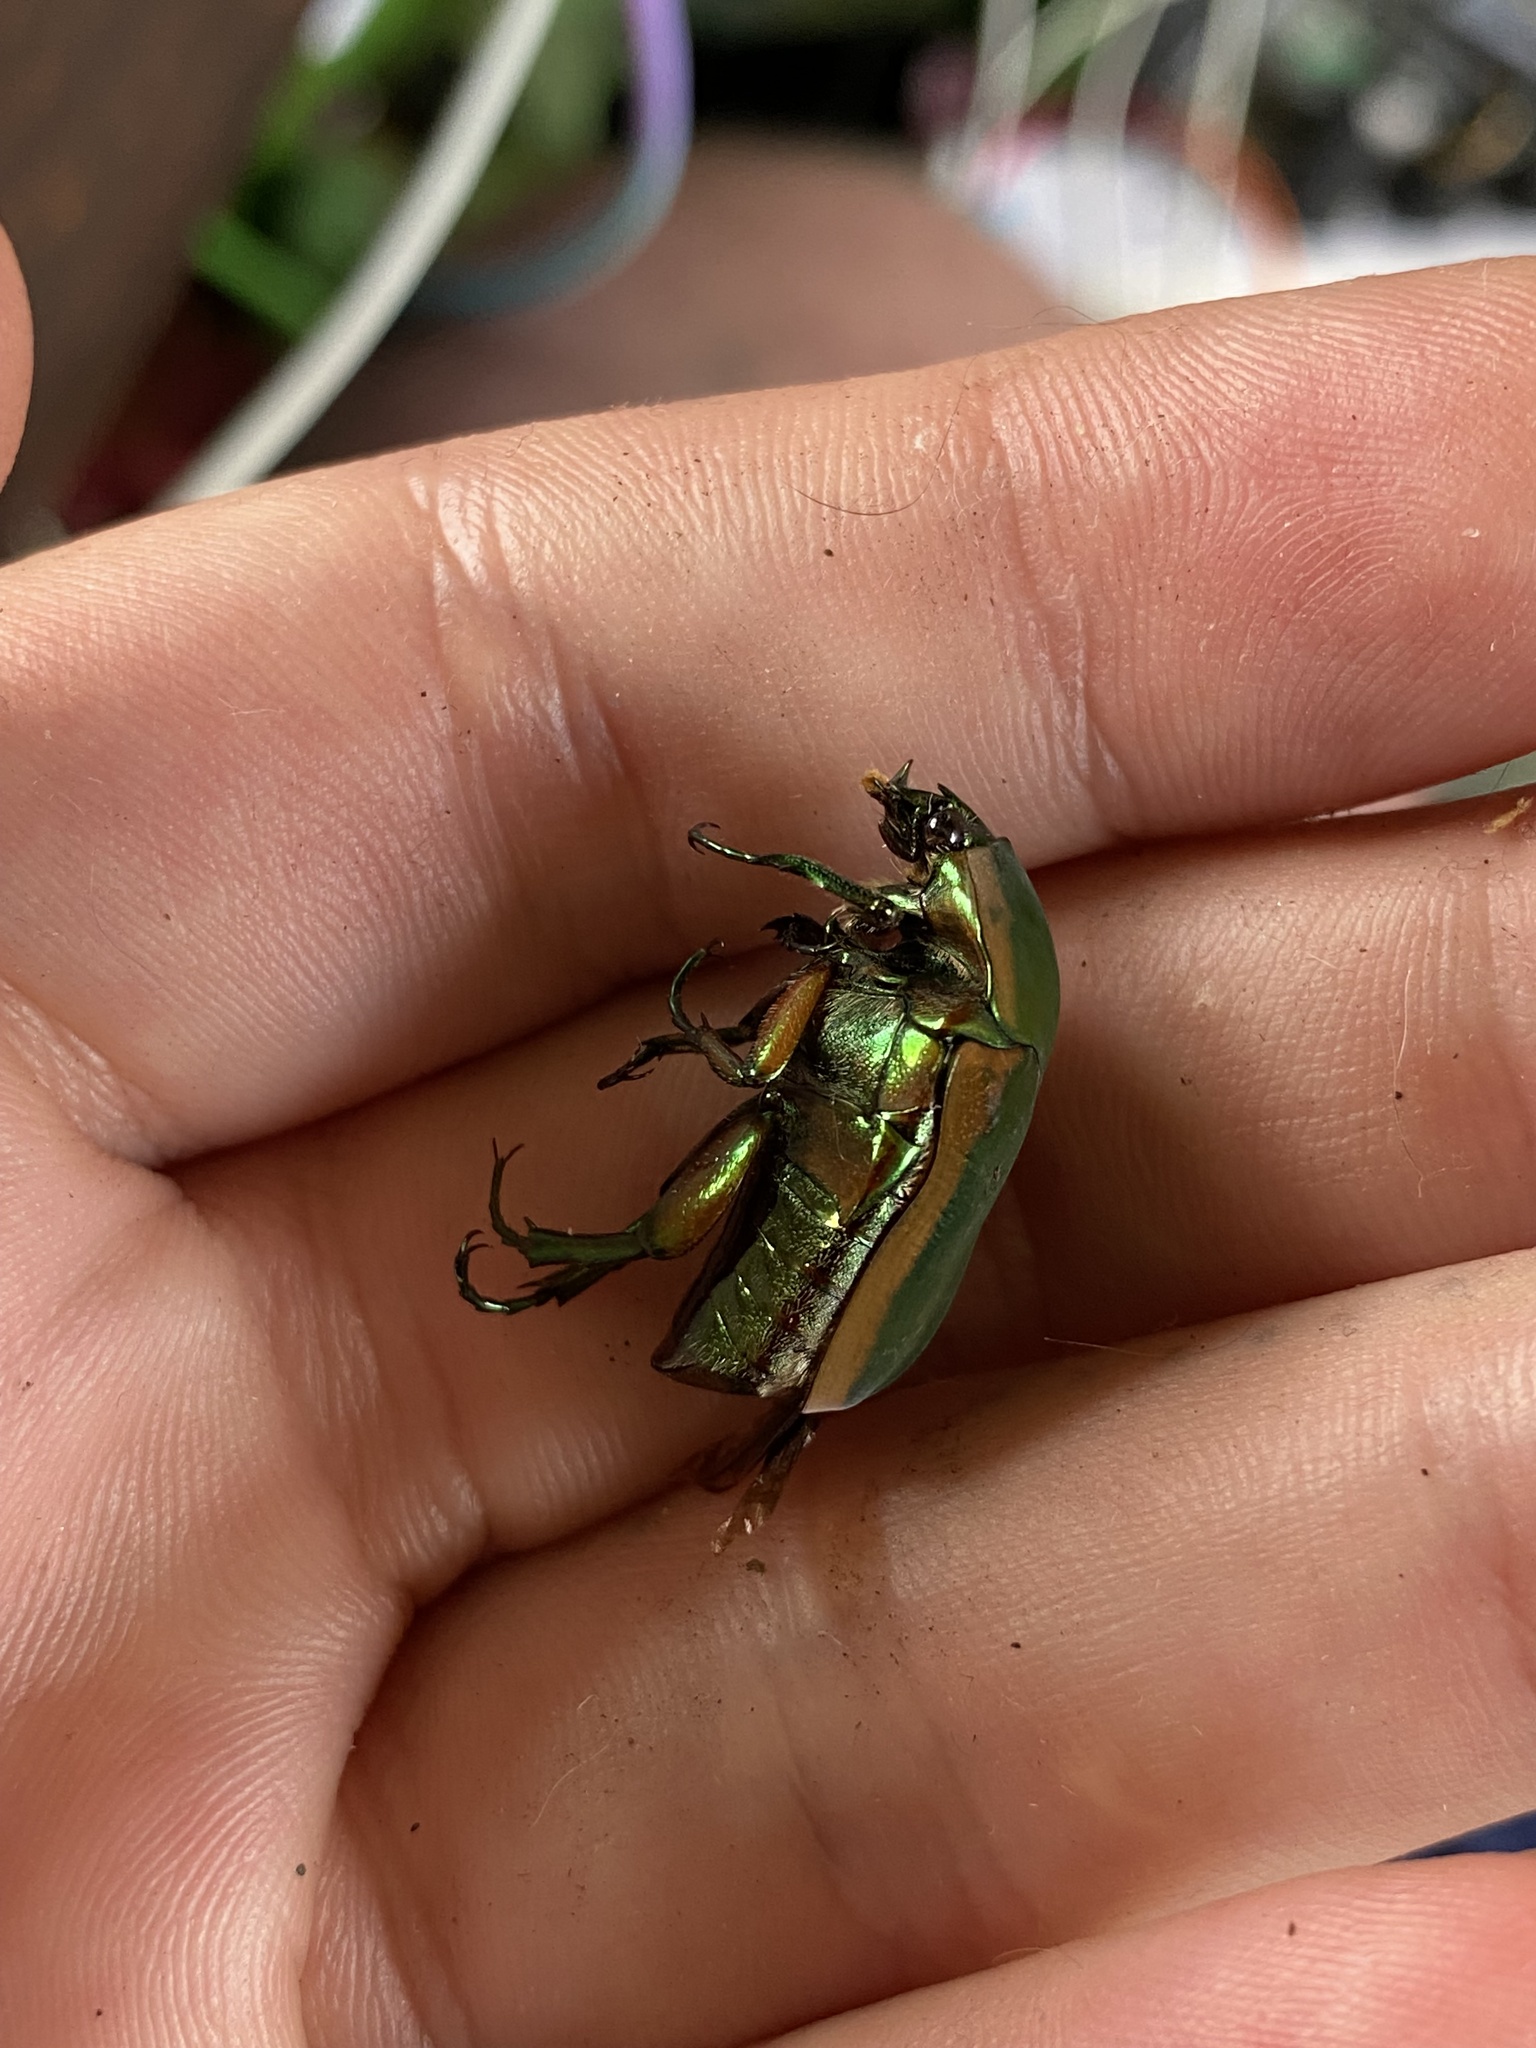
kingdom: Animalia
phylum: Arthropoda
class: Insecta
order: Coleoptera
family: Scarabaeidae
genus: Cotinis
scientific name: Cotinis nitida
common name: Common green june beetle
